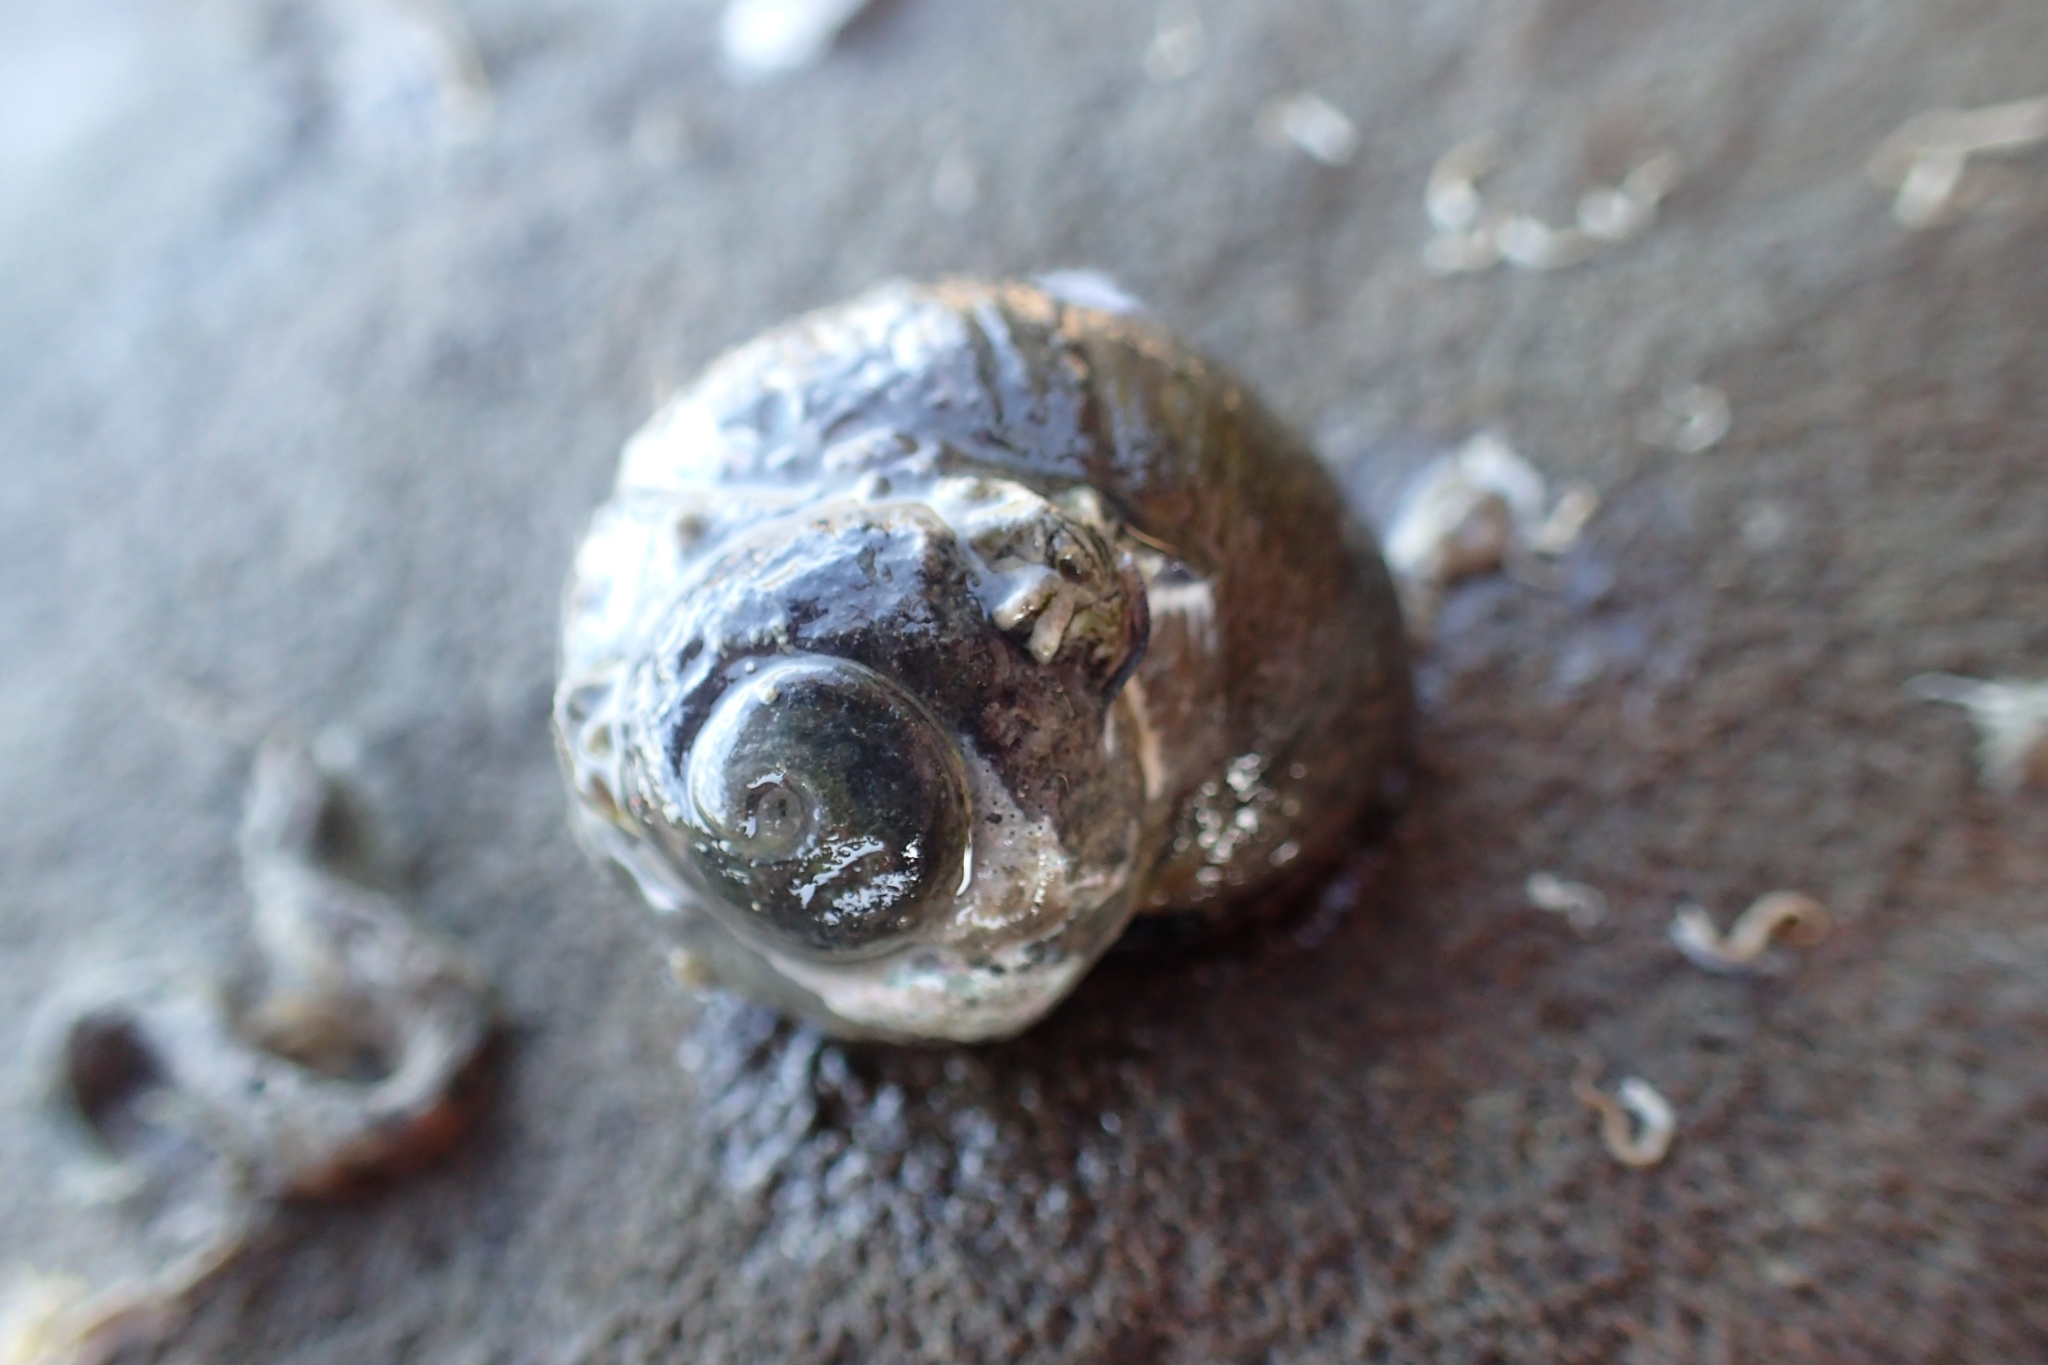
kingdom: Animalia
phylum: Mollusca
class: Gastropoda
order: Trochida
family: Turbinidae
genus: Lunella
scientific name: Lunella smaragda
